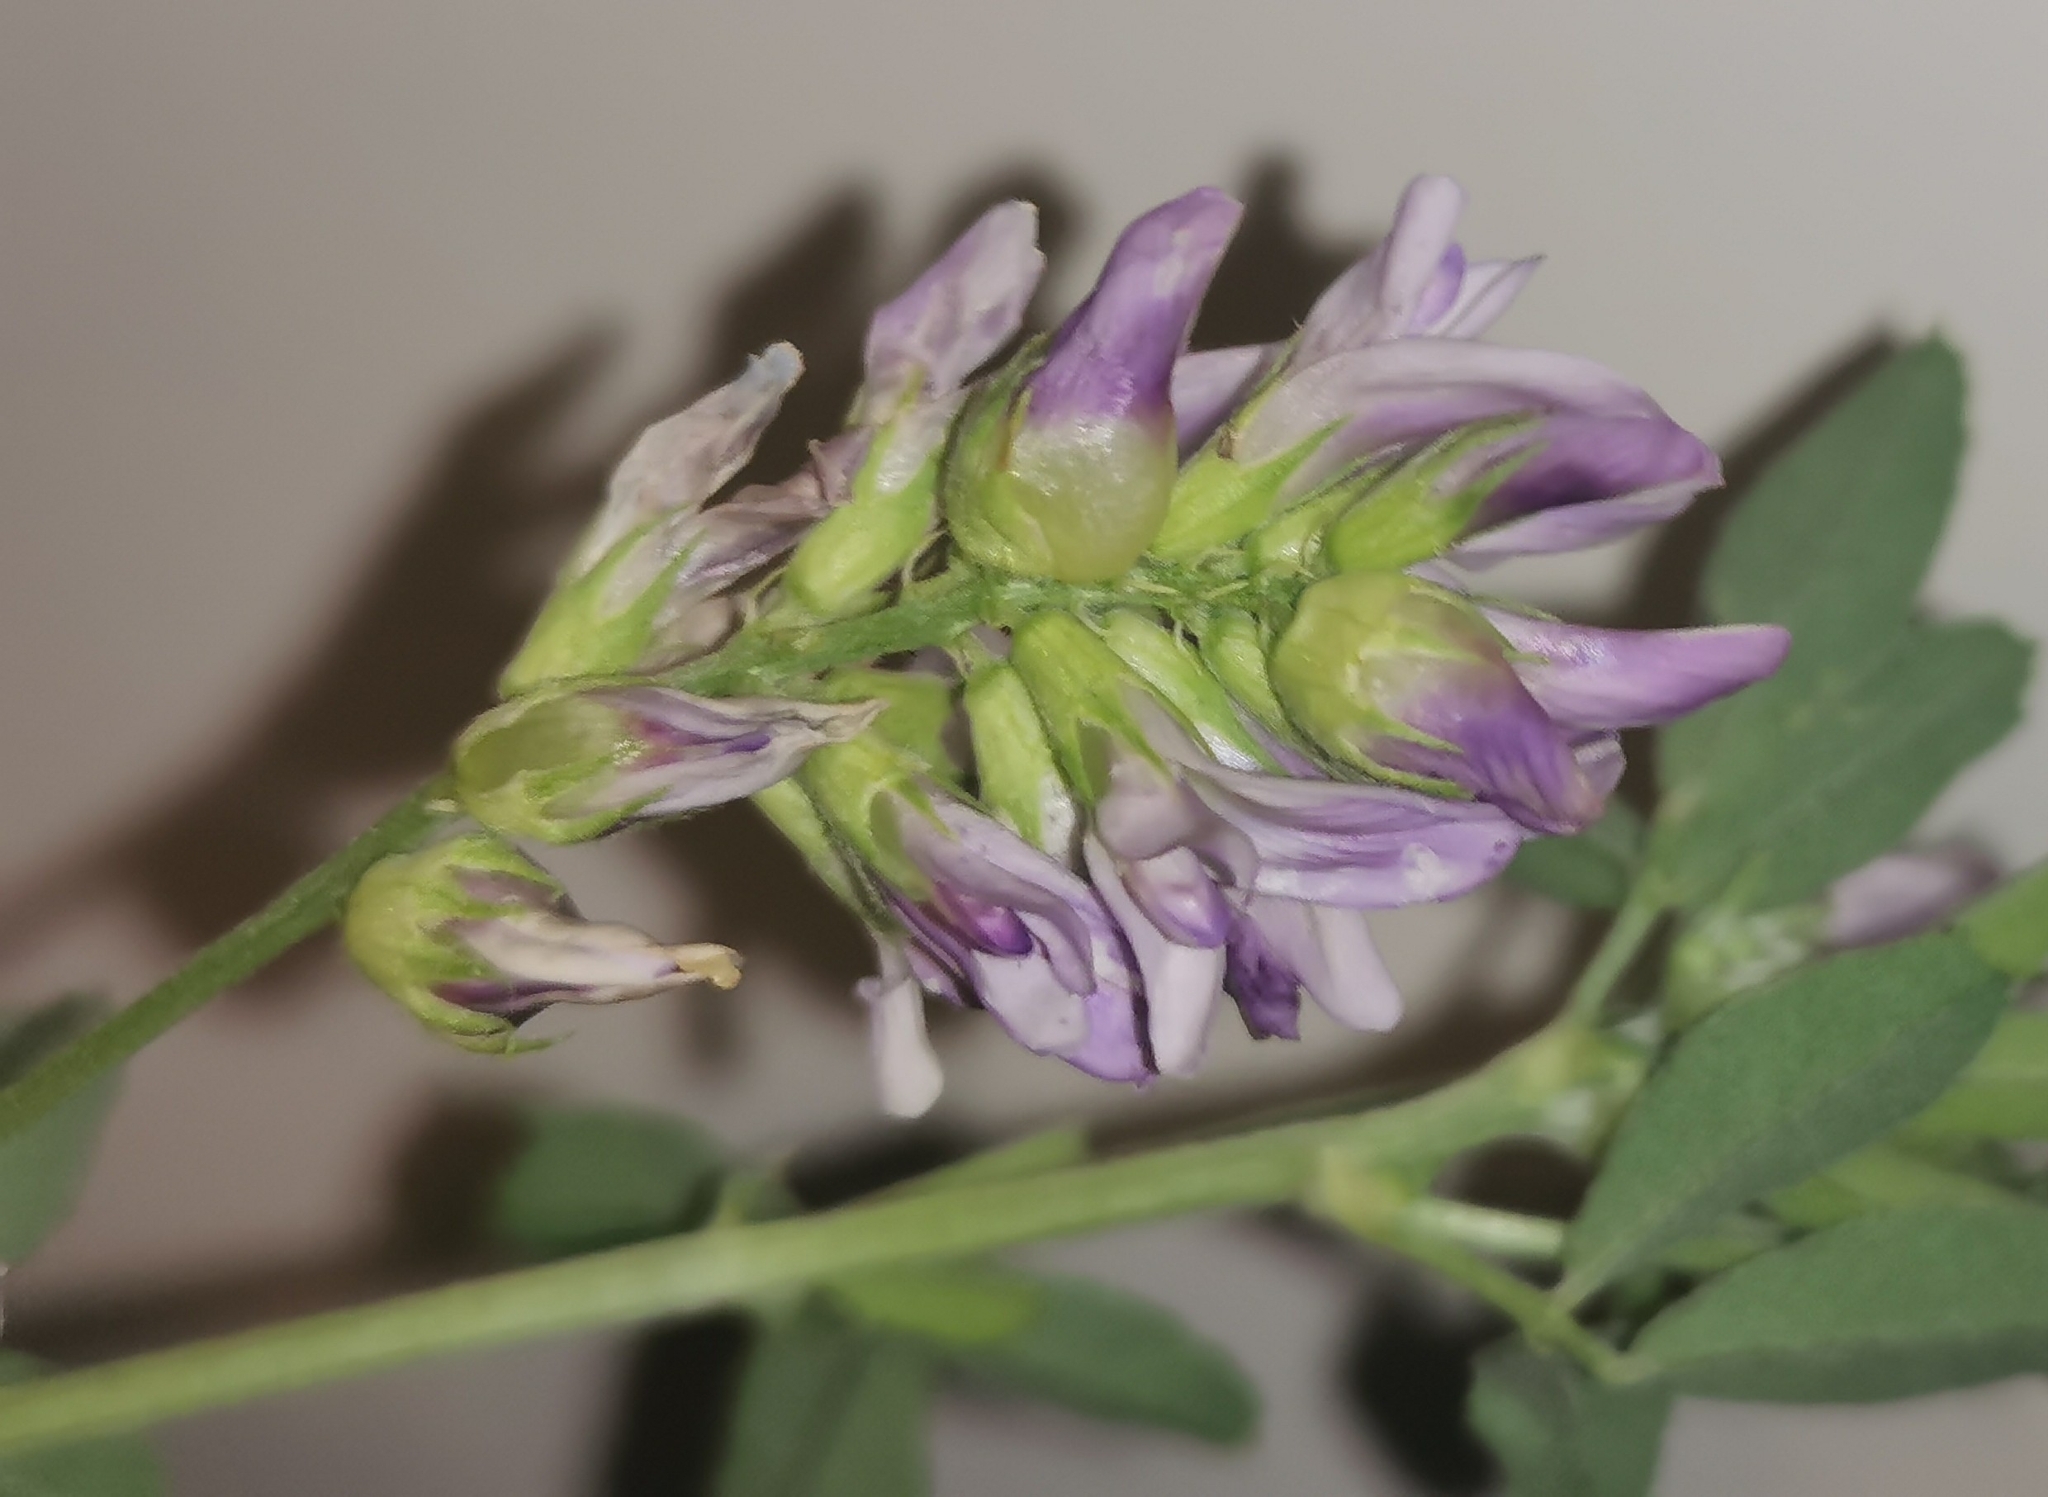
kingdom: Animalia
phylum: Arthropoda
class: Insecta
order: Diptera
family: Cecidomyiidae
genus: Contarinia
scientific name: Contarinia medicaginis
